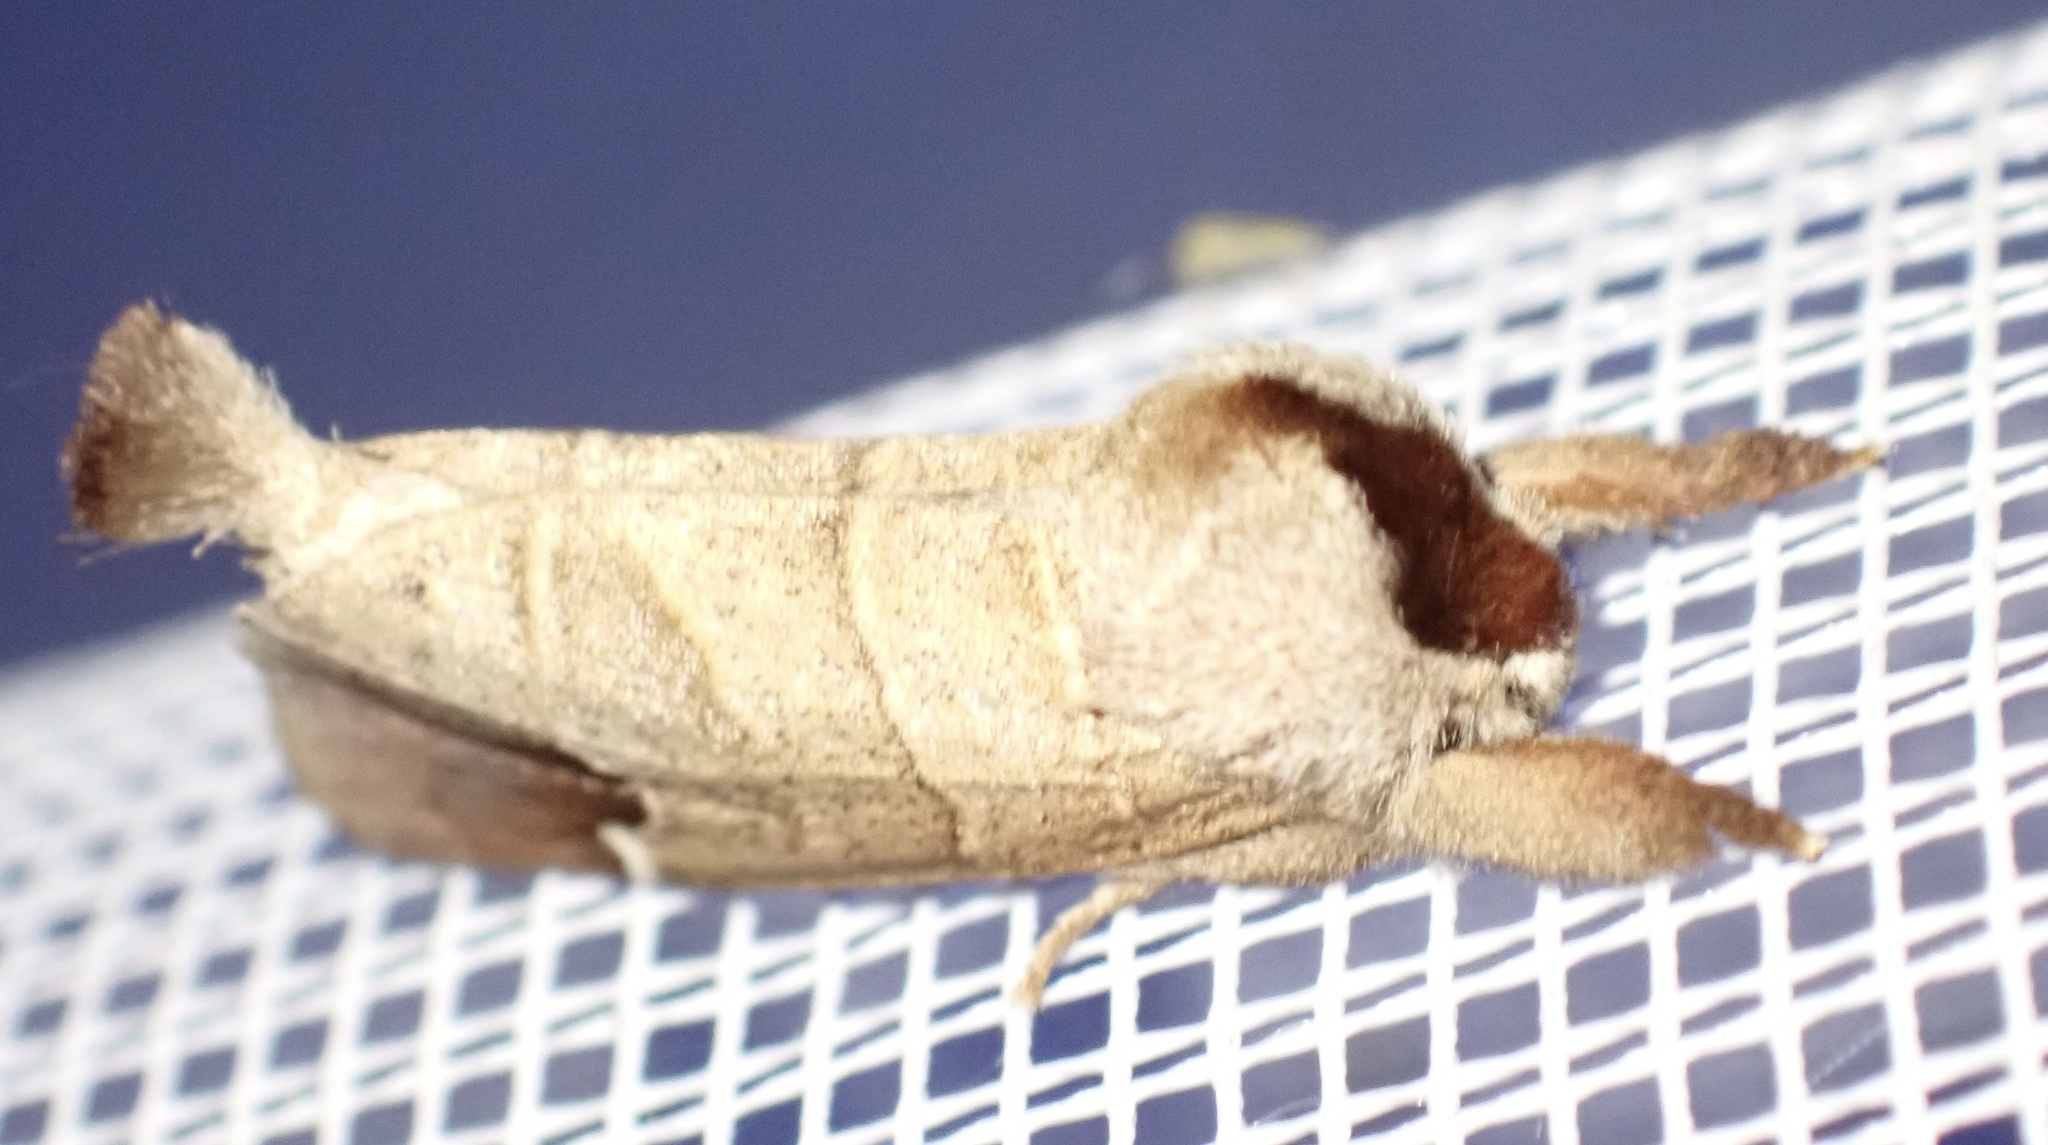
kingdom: Animalia
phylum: Arthropoda
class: Insecta
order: Lepidoptera
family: Notodontidae
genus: Clostera
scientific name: Clostera curtula
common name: Chocolate-tip
